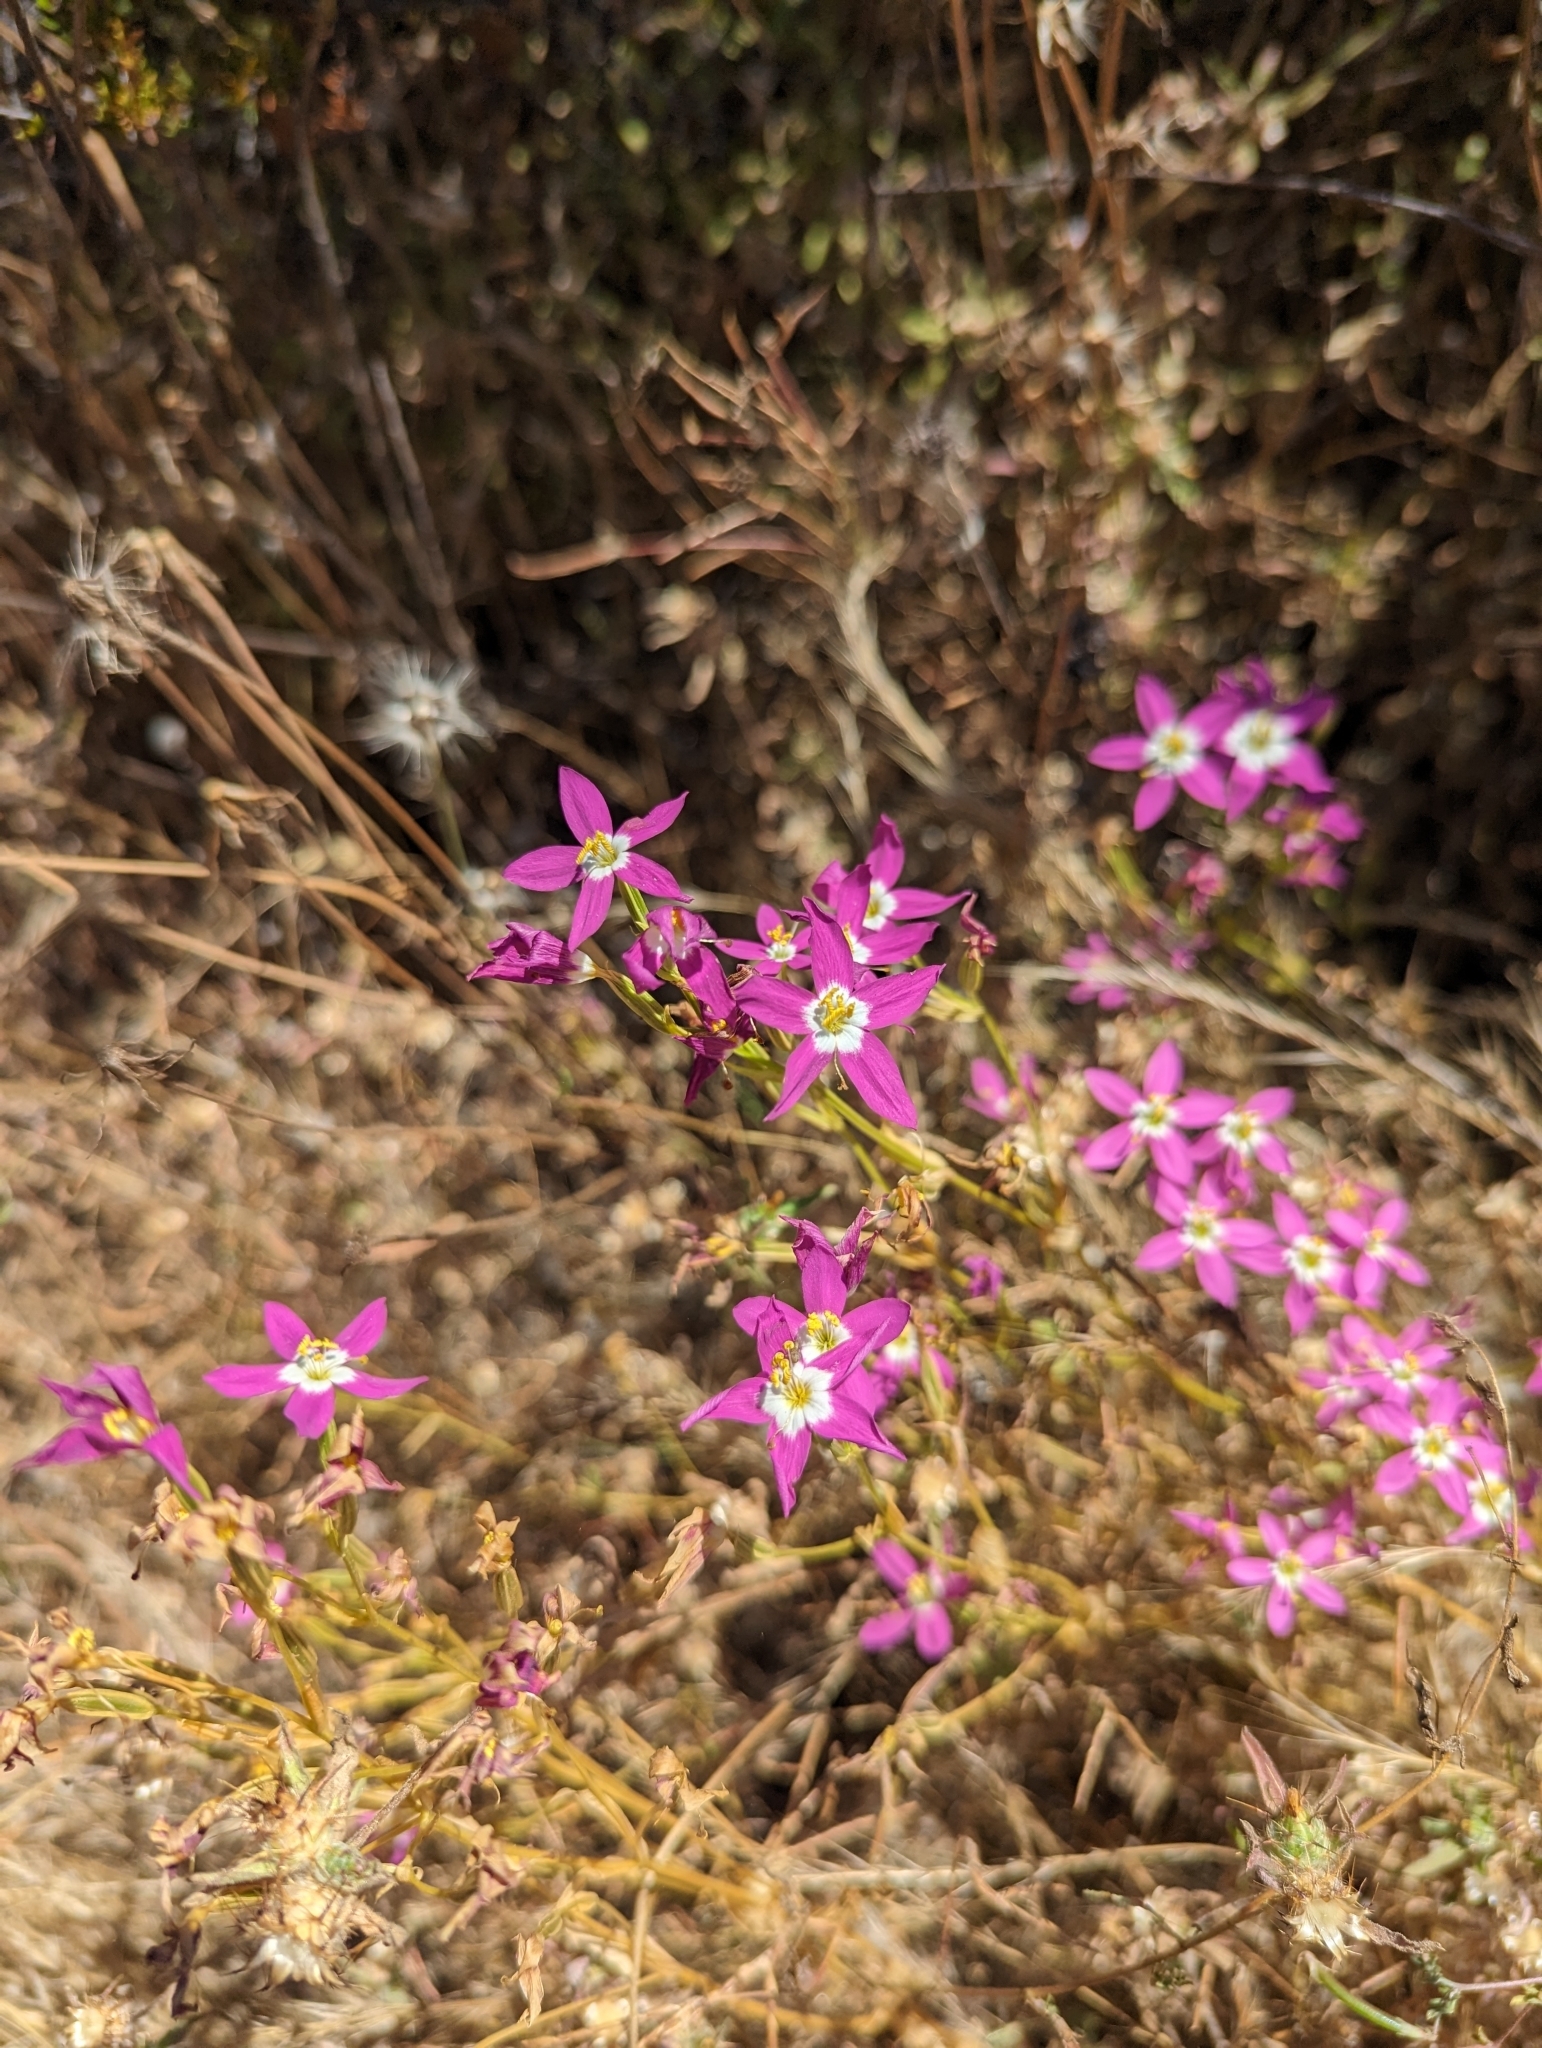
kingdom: Plantae
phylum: Tracheophyta
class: Magnoliopsida
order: Gentianales
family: Gentianaceae
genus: Zeltnera
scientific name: Zeltnera venusta
